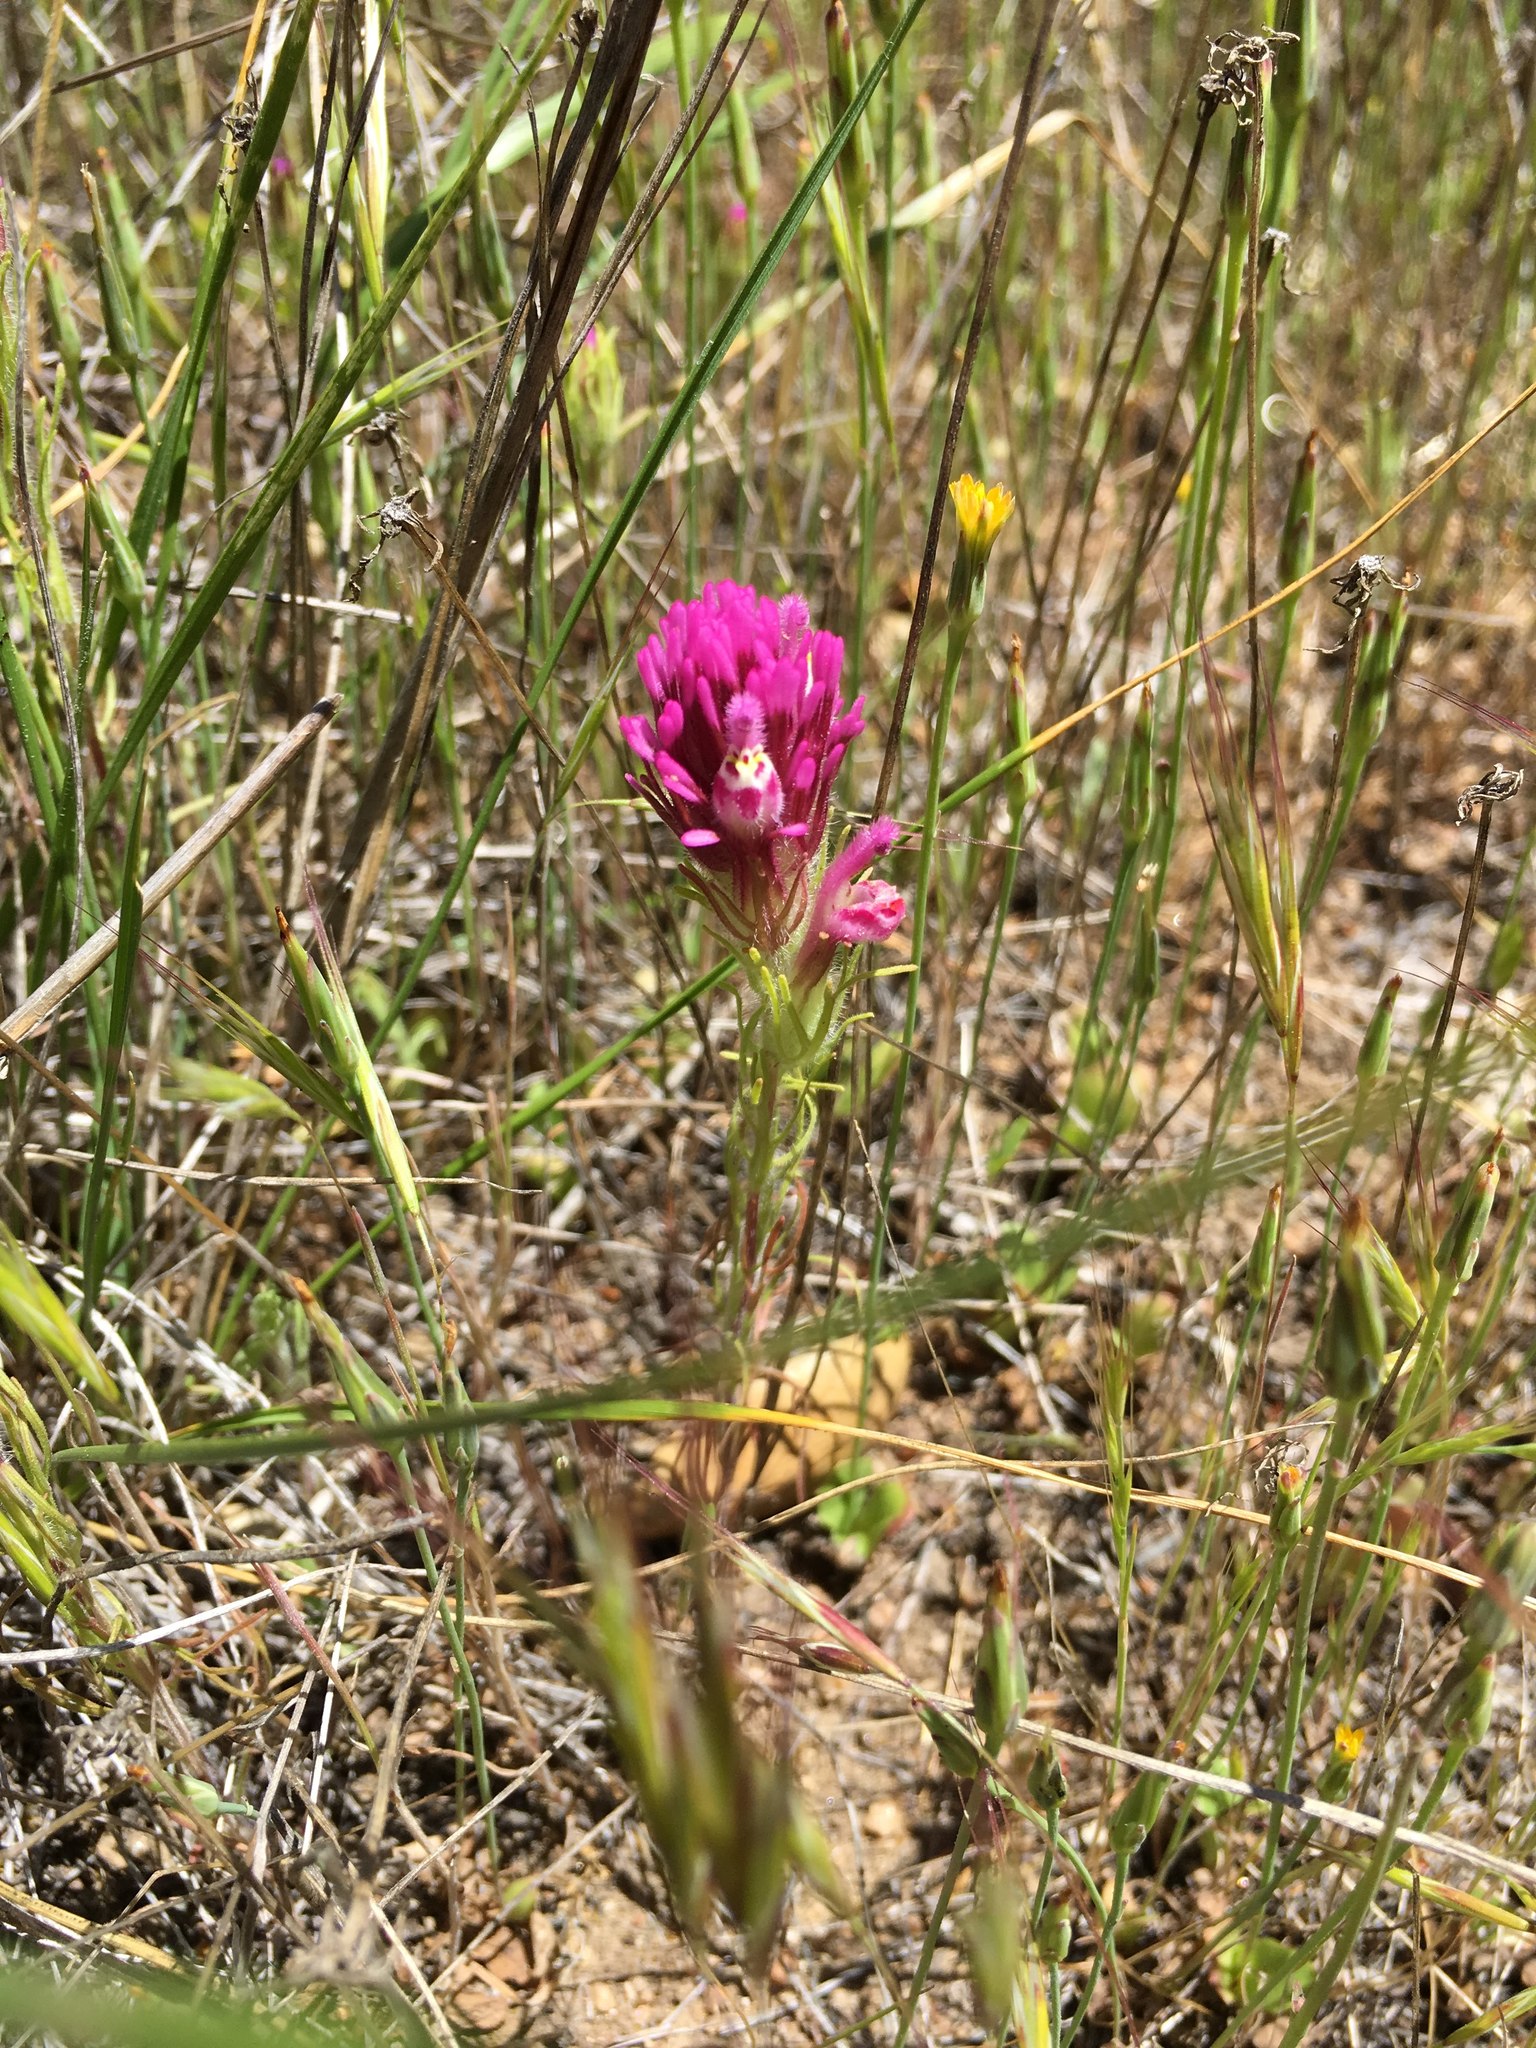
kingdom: Plantae
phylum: Tracheophyta
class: Magnoliopsida
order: Lamiales
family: Orobanchaceae
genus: Castilleja
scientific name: Castilleja exserta
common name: Purple owl-clover
